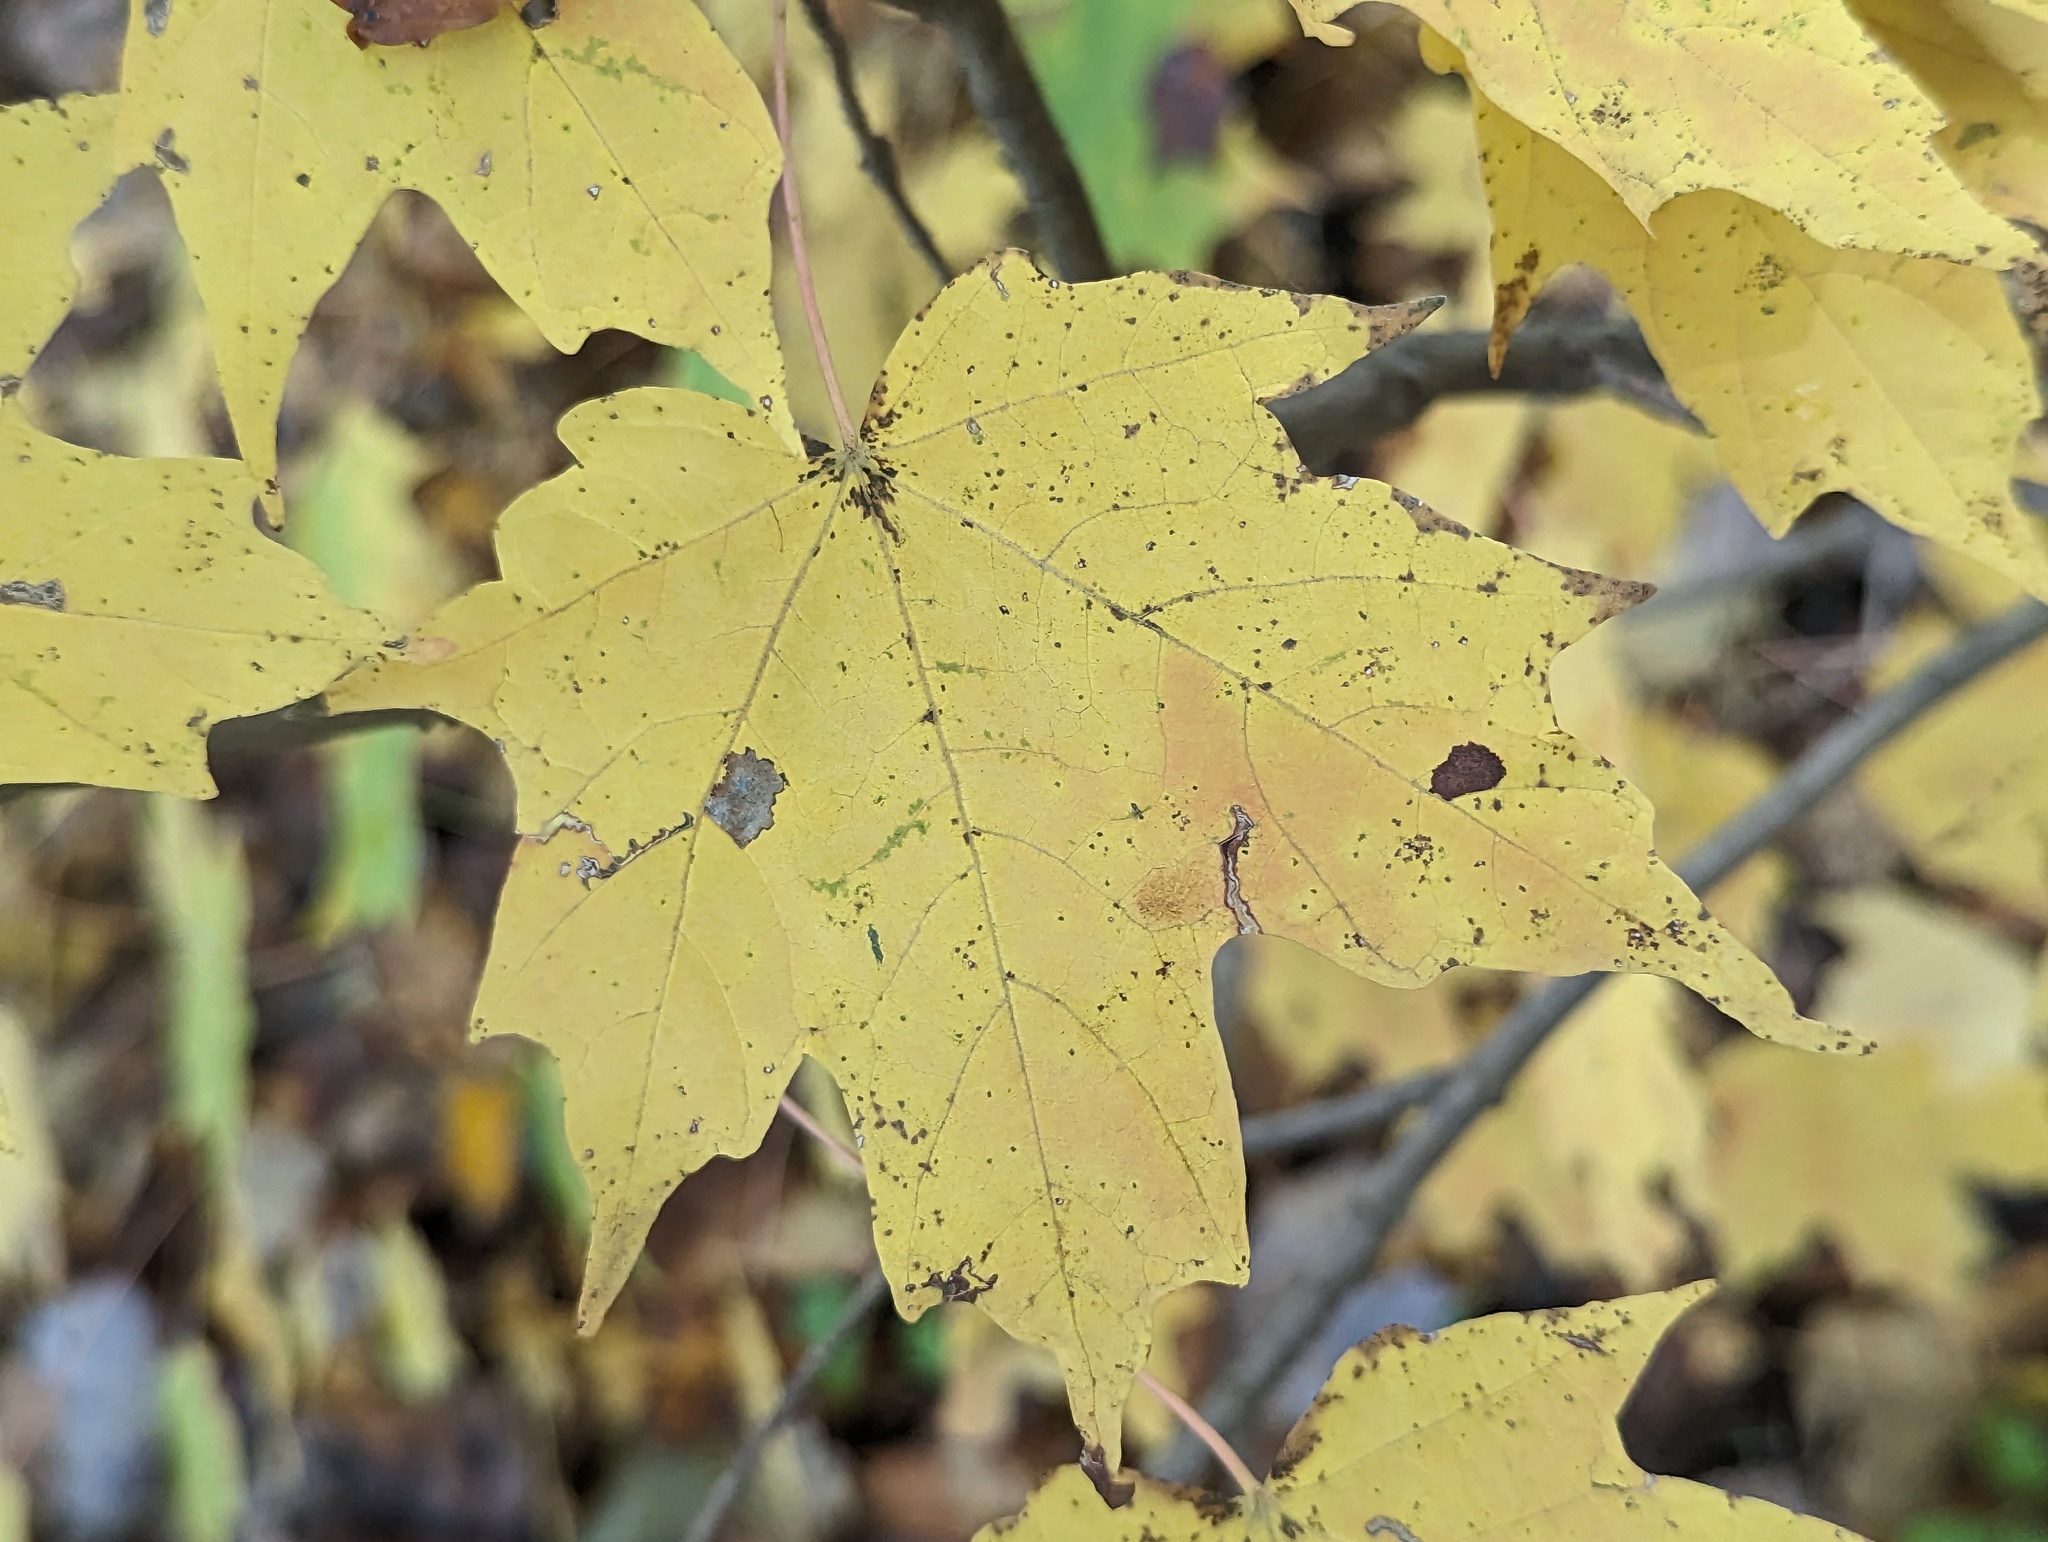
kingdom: Plantae
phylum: Tracheophyta
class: Magnoliopsida
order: Sapindales
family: Sapindaceae
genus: Acer
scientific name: Acer saccharum
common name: Sugar maple
